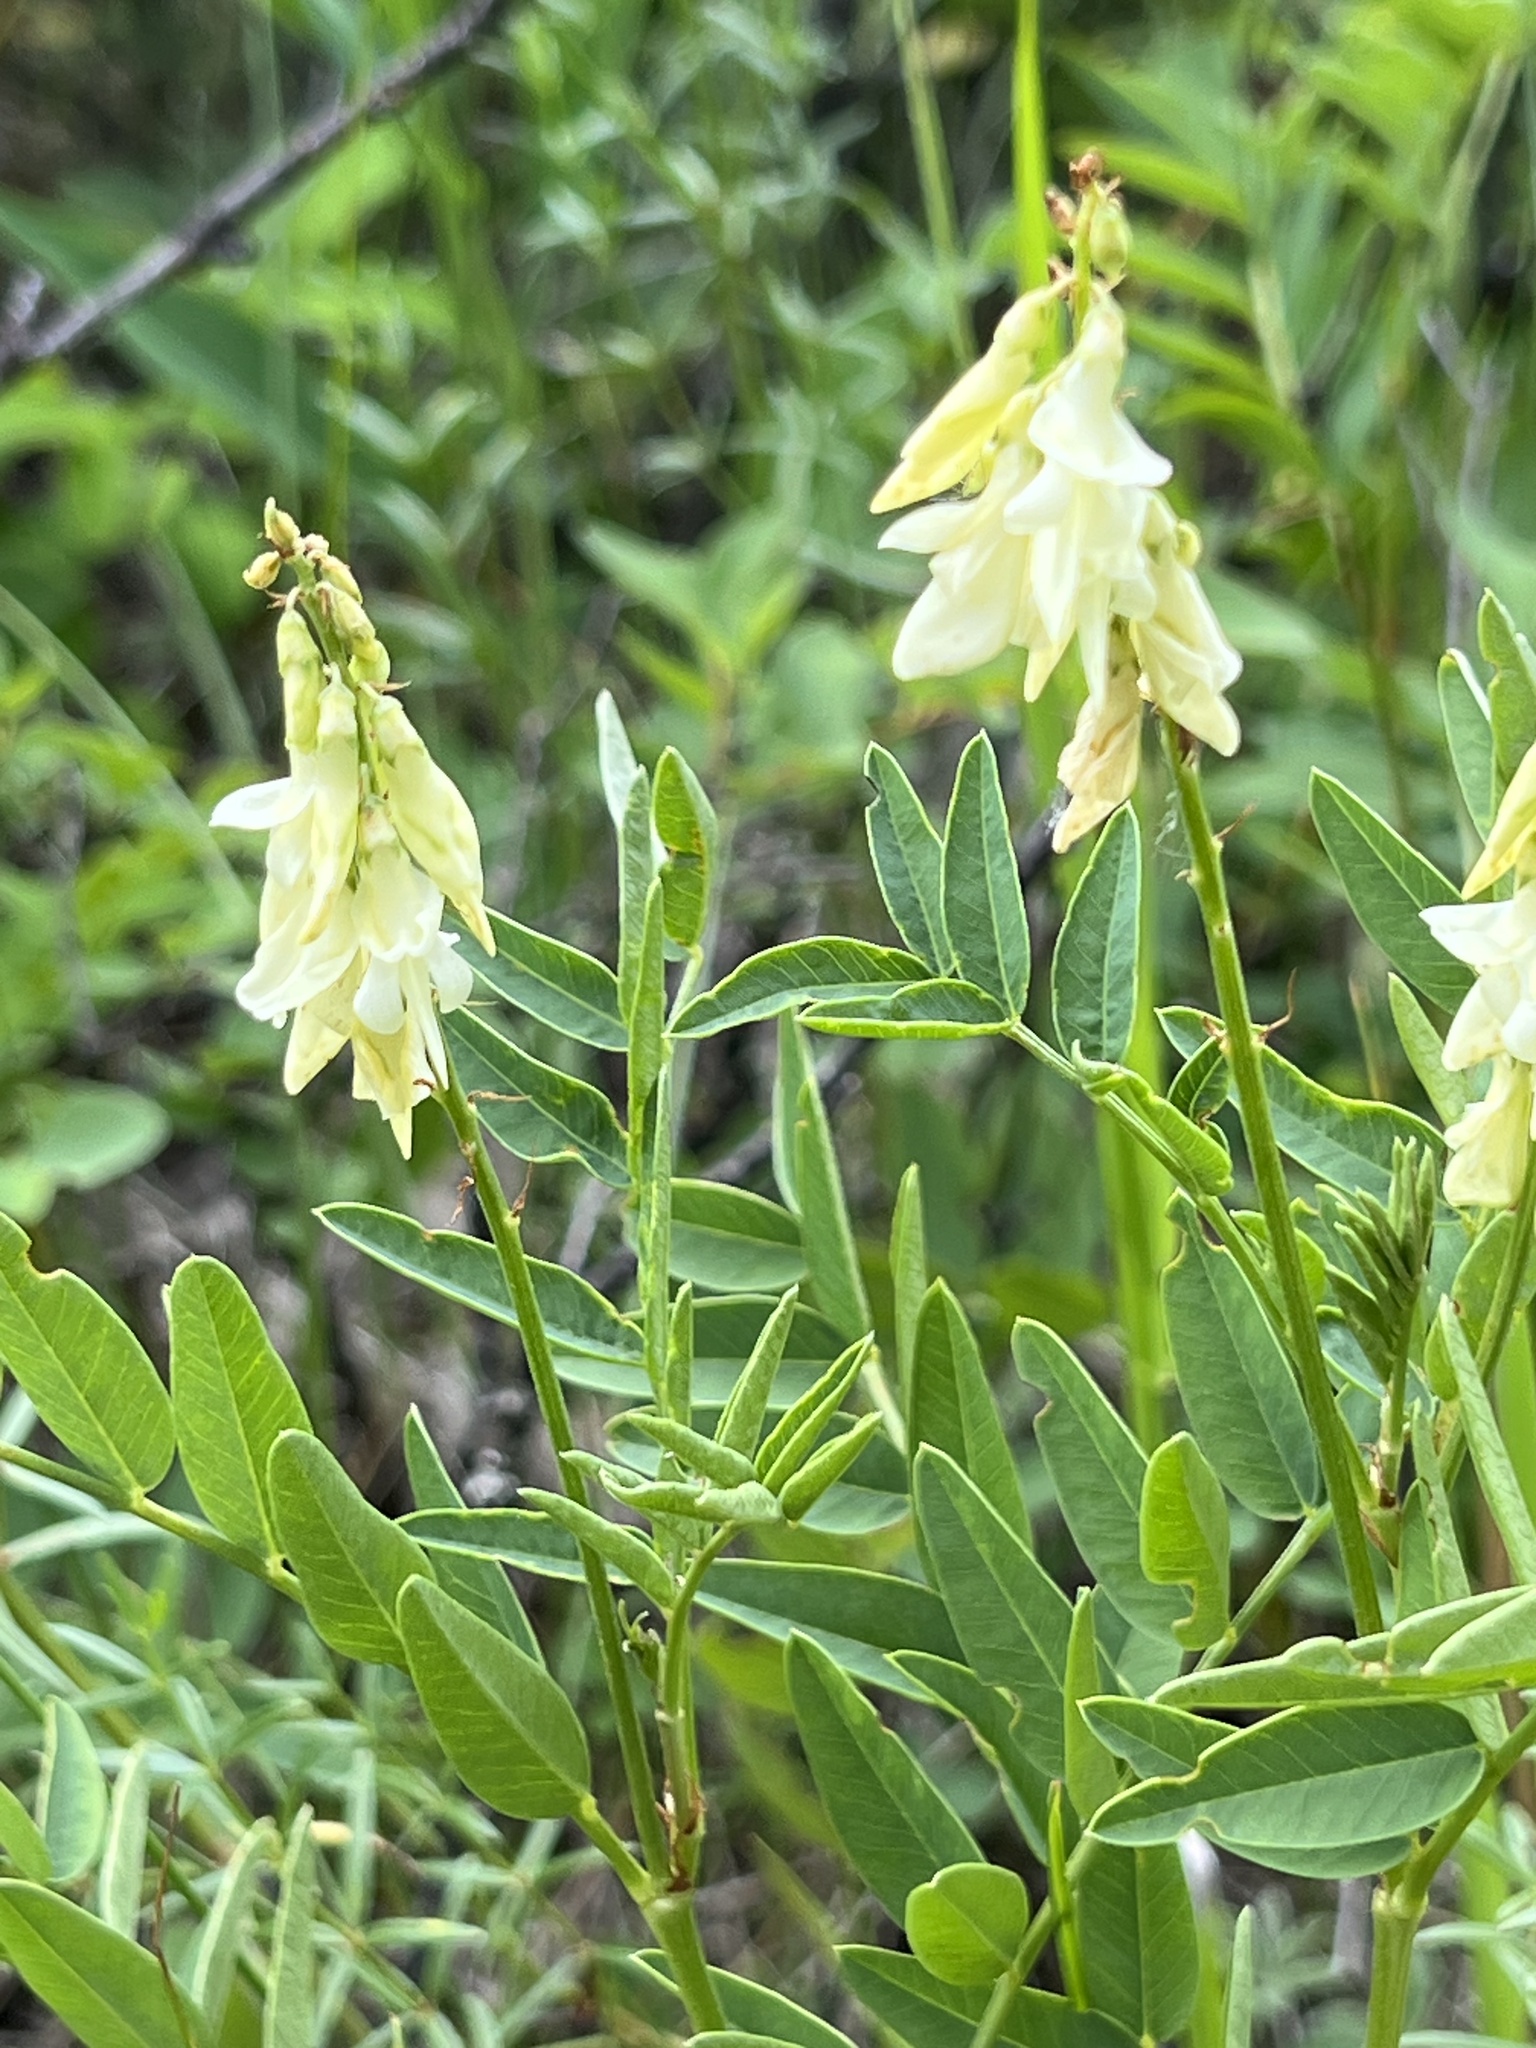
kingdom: Plantae
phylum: Tracheophyta
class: Magnoliopsida
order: Fabales
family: Fabaceae
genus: Hedysarum
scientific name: Hedysarum sulphurescens
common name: Sulphur hedysarum
